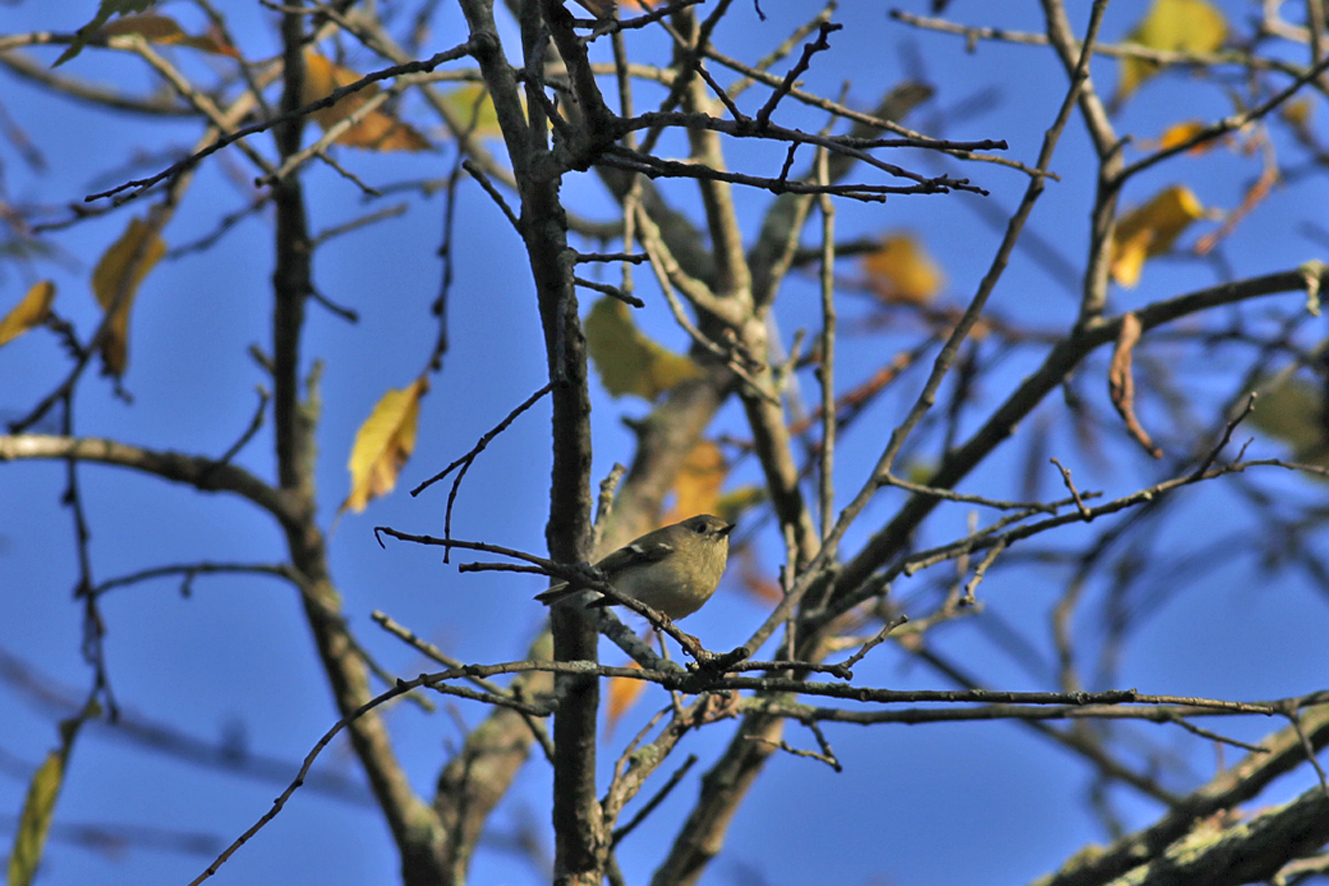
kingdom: Animalia
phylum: Chordata
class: Aves
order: Passeriformes
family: Regulidae
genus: Regulus
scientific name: Regulus calendula
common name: Ruby-crowned kinglet
